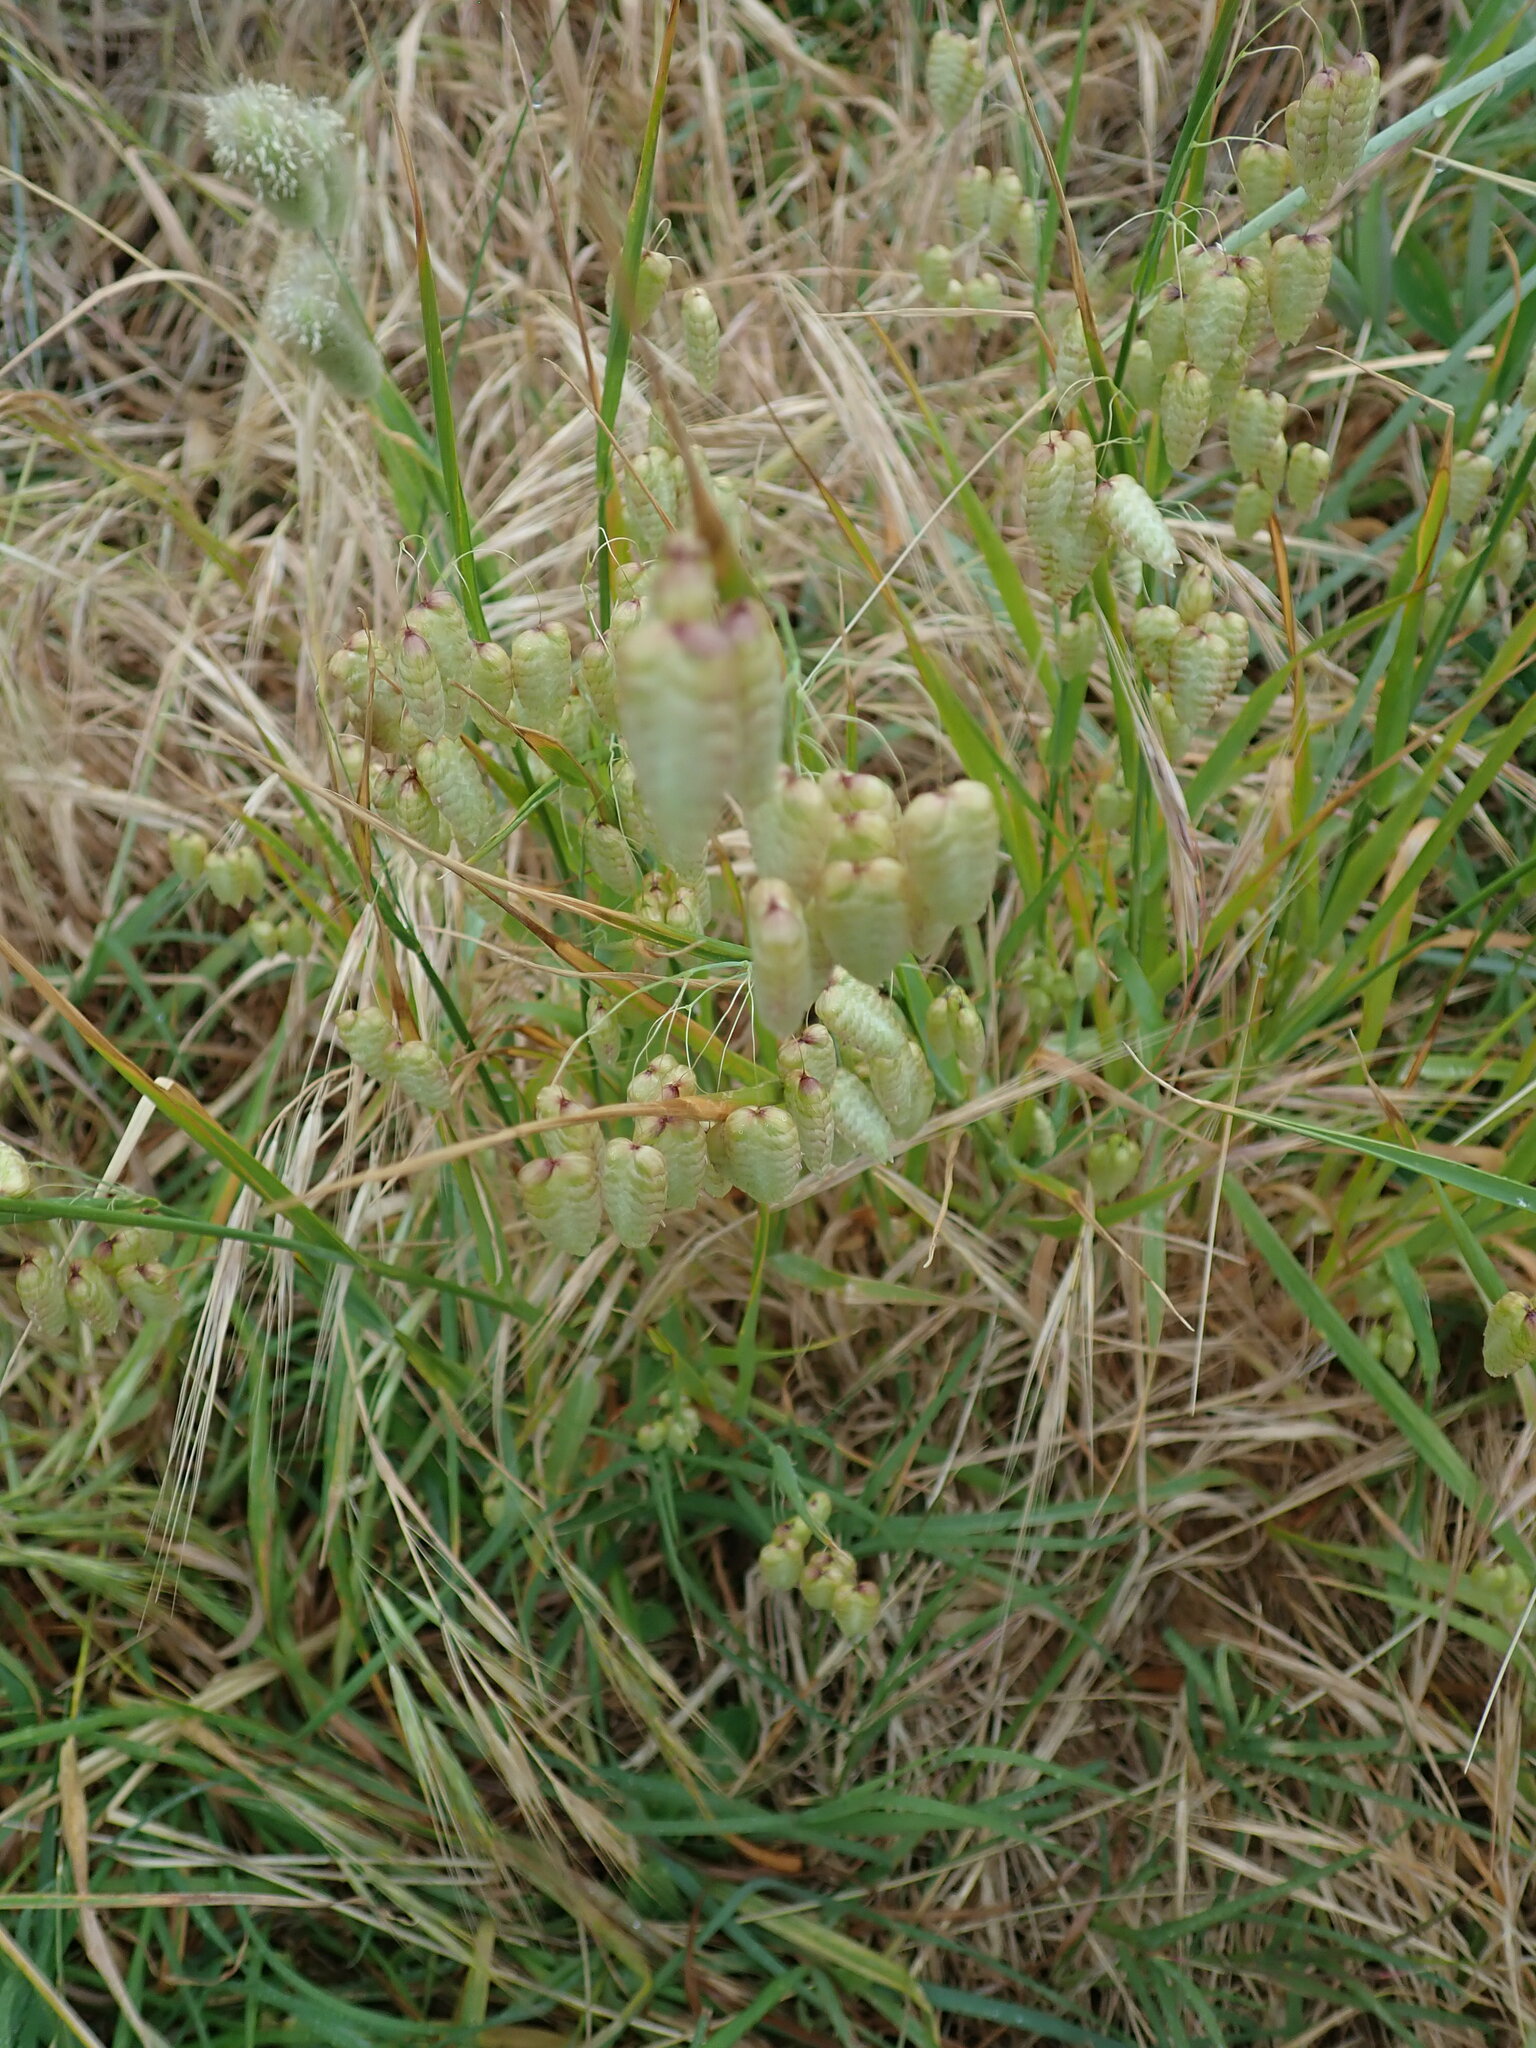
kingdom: Plantae
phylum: Tracheophyta
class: Liliopsida
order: Poales
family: Poaceae
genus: Briza
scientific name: Briza maxima
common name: Big quakinggrass
